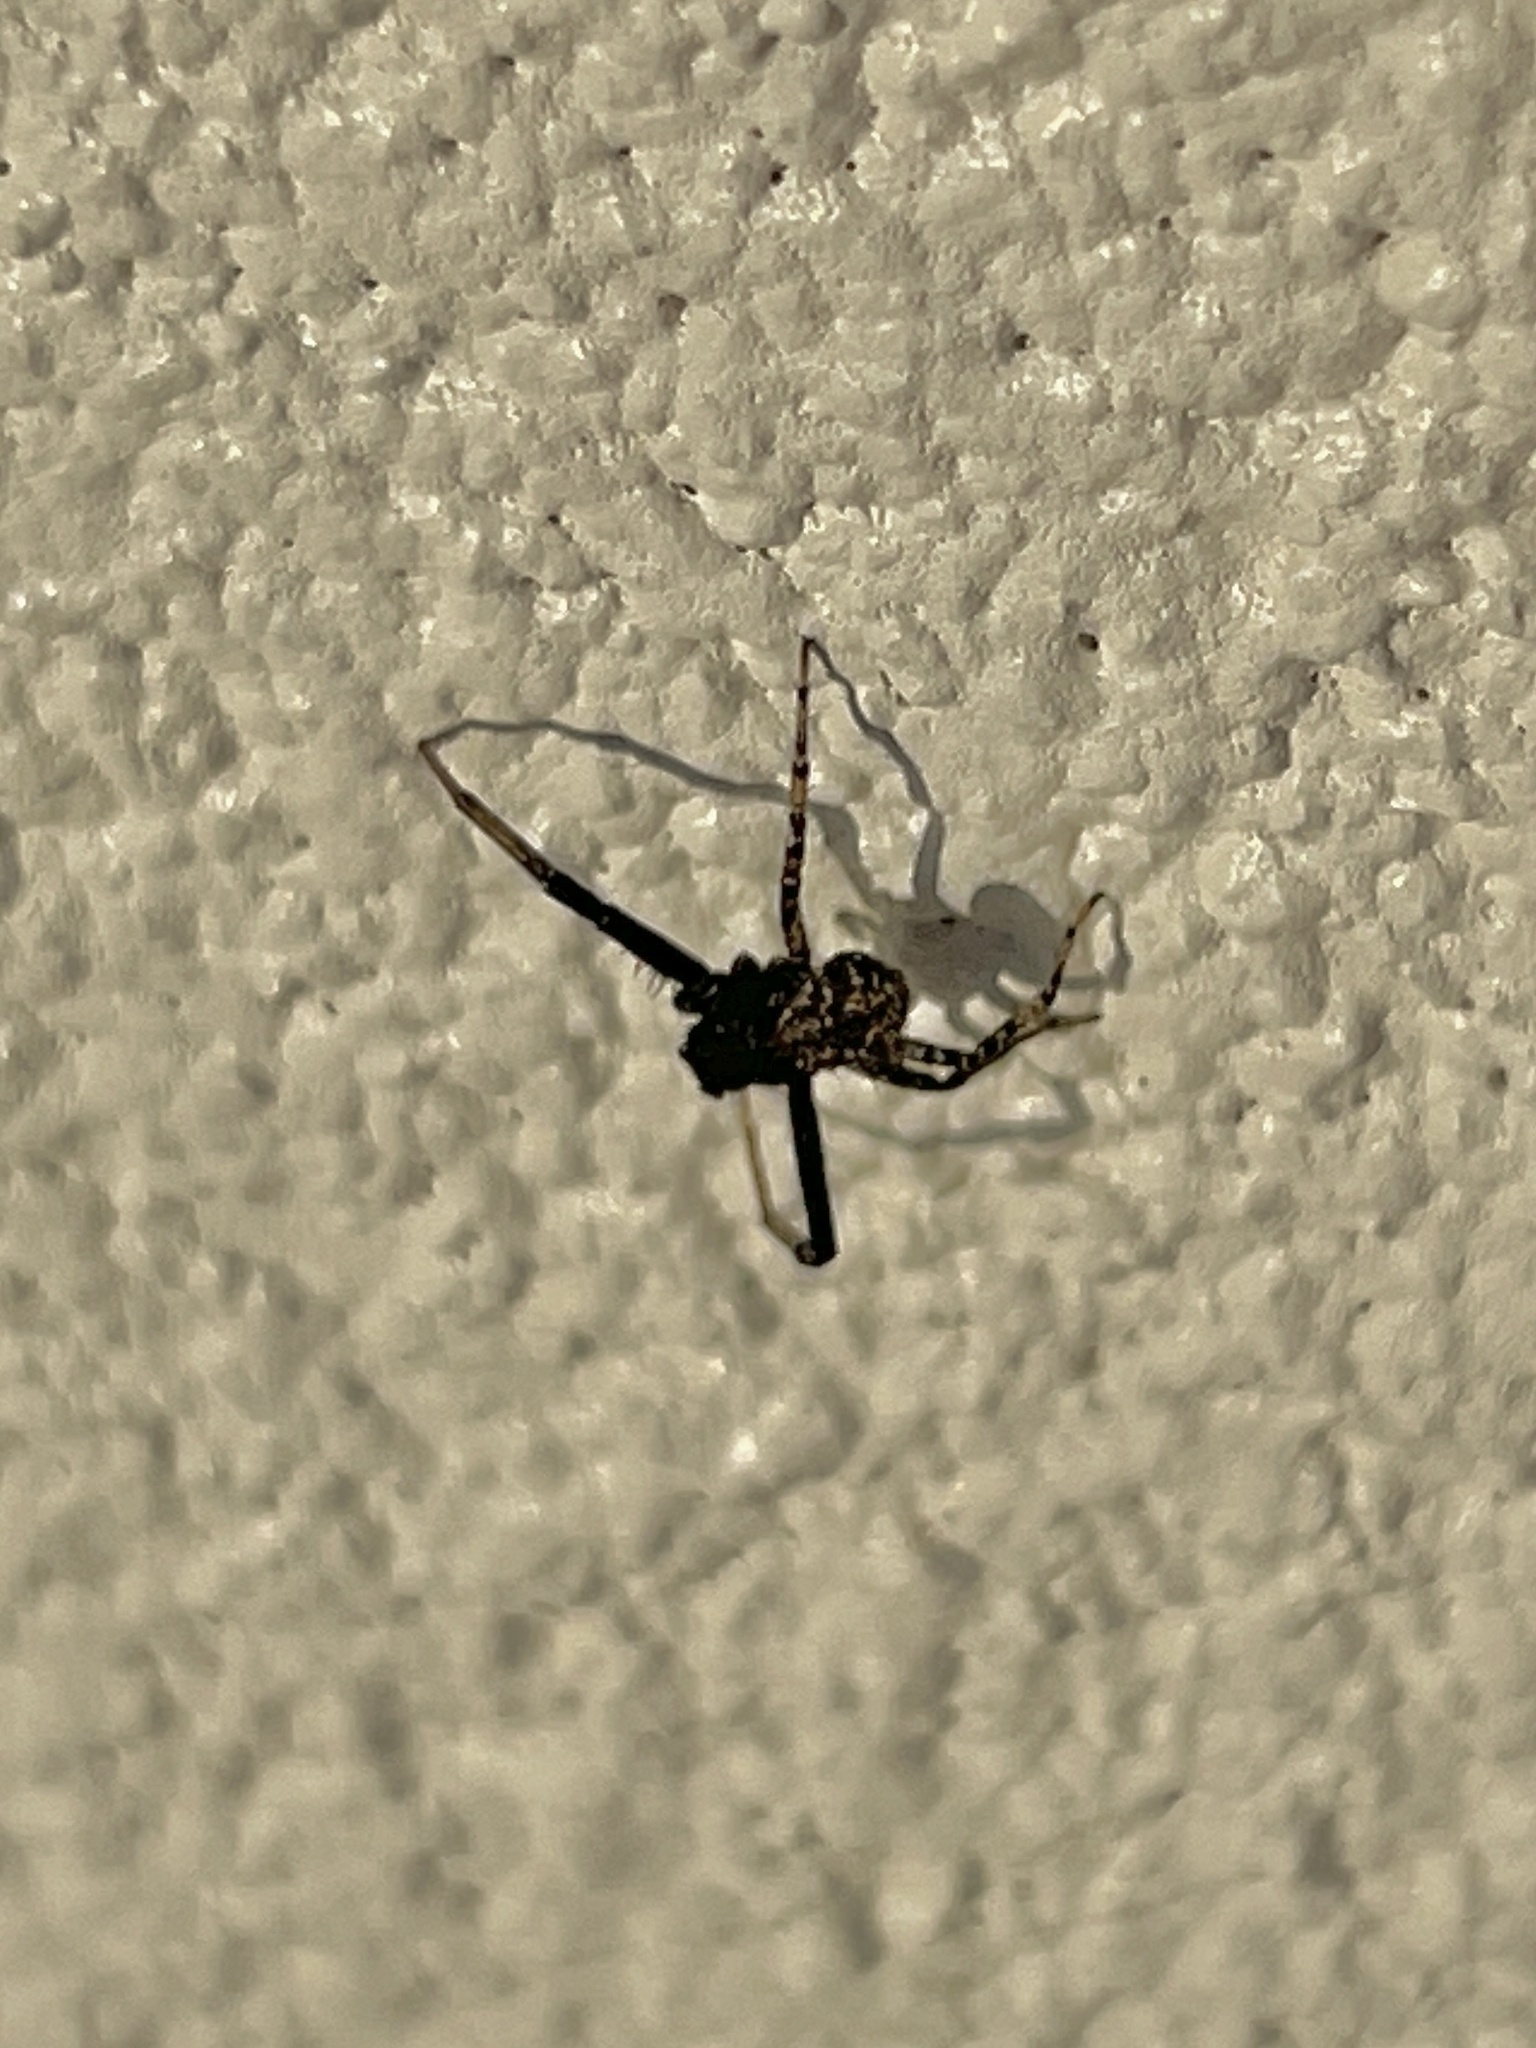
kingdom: Animalia
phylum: Arthropoda
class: Arachnida
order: Araneae
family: Araneidae
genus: Gea
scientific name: Gea heptagon
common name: Orb weavers
